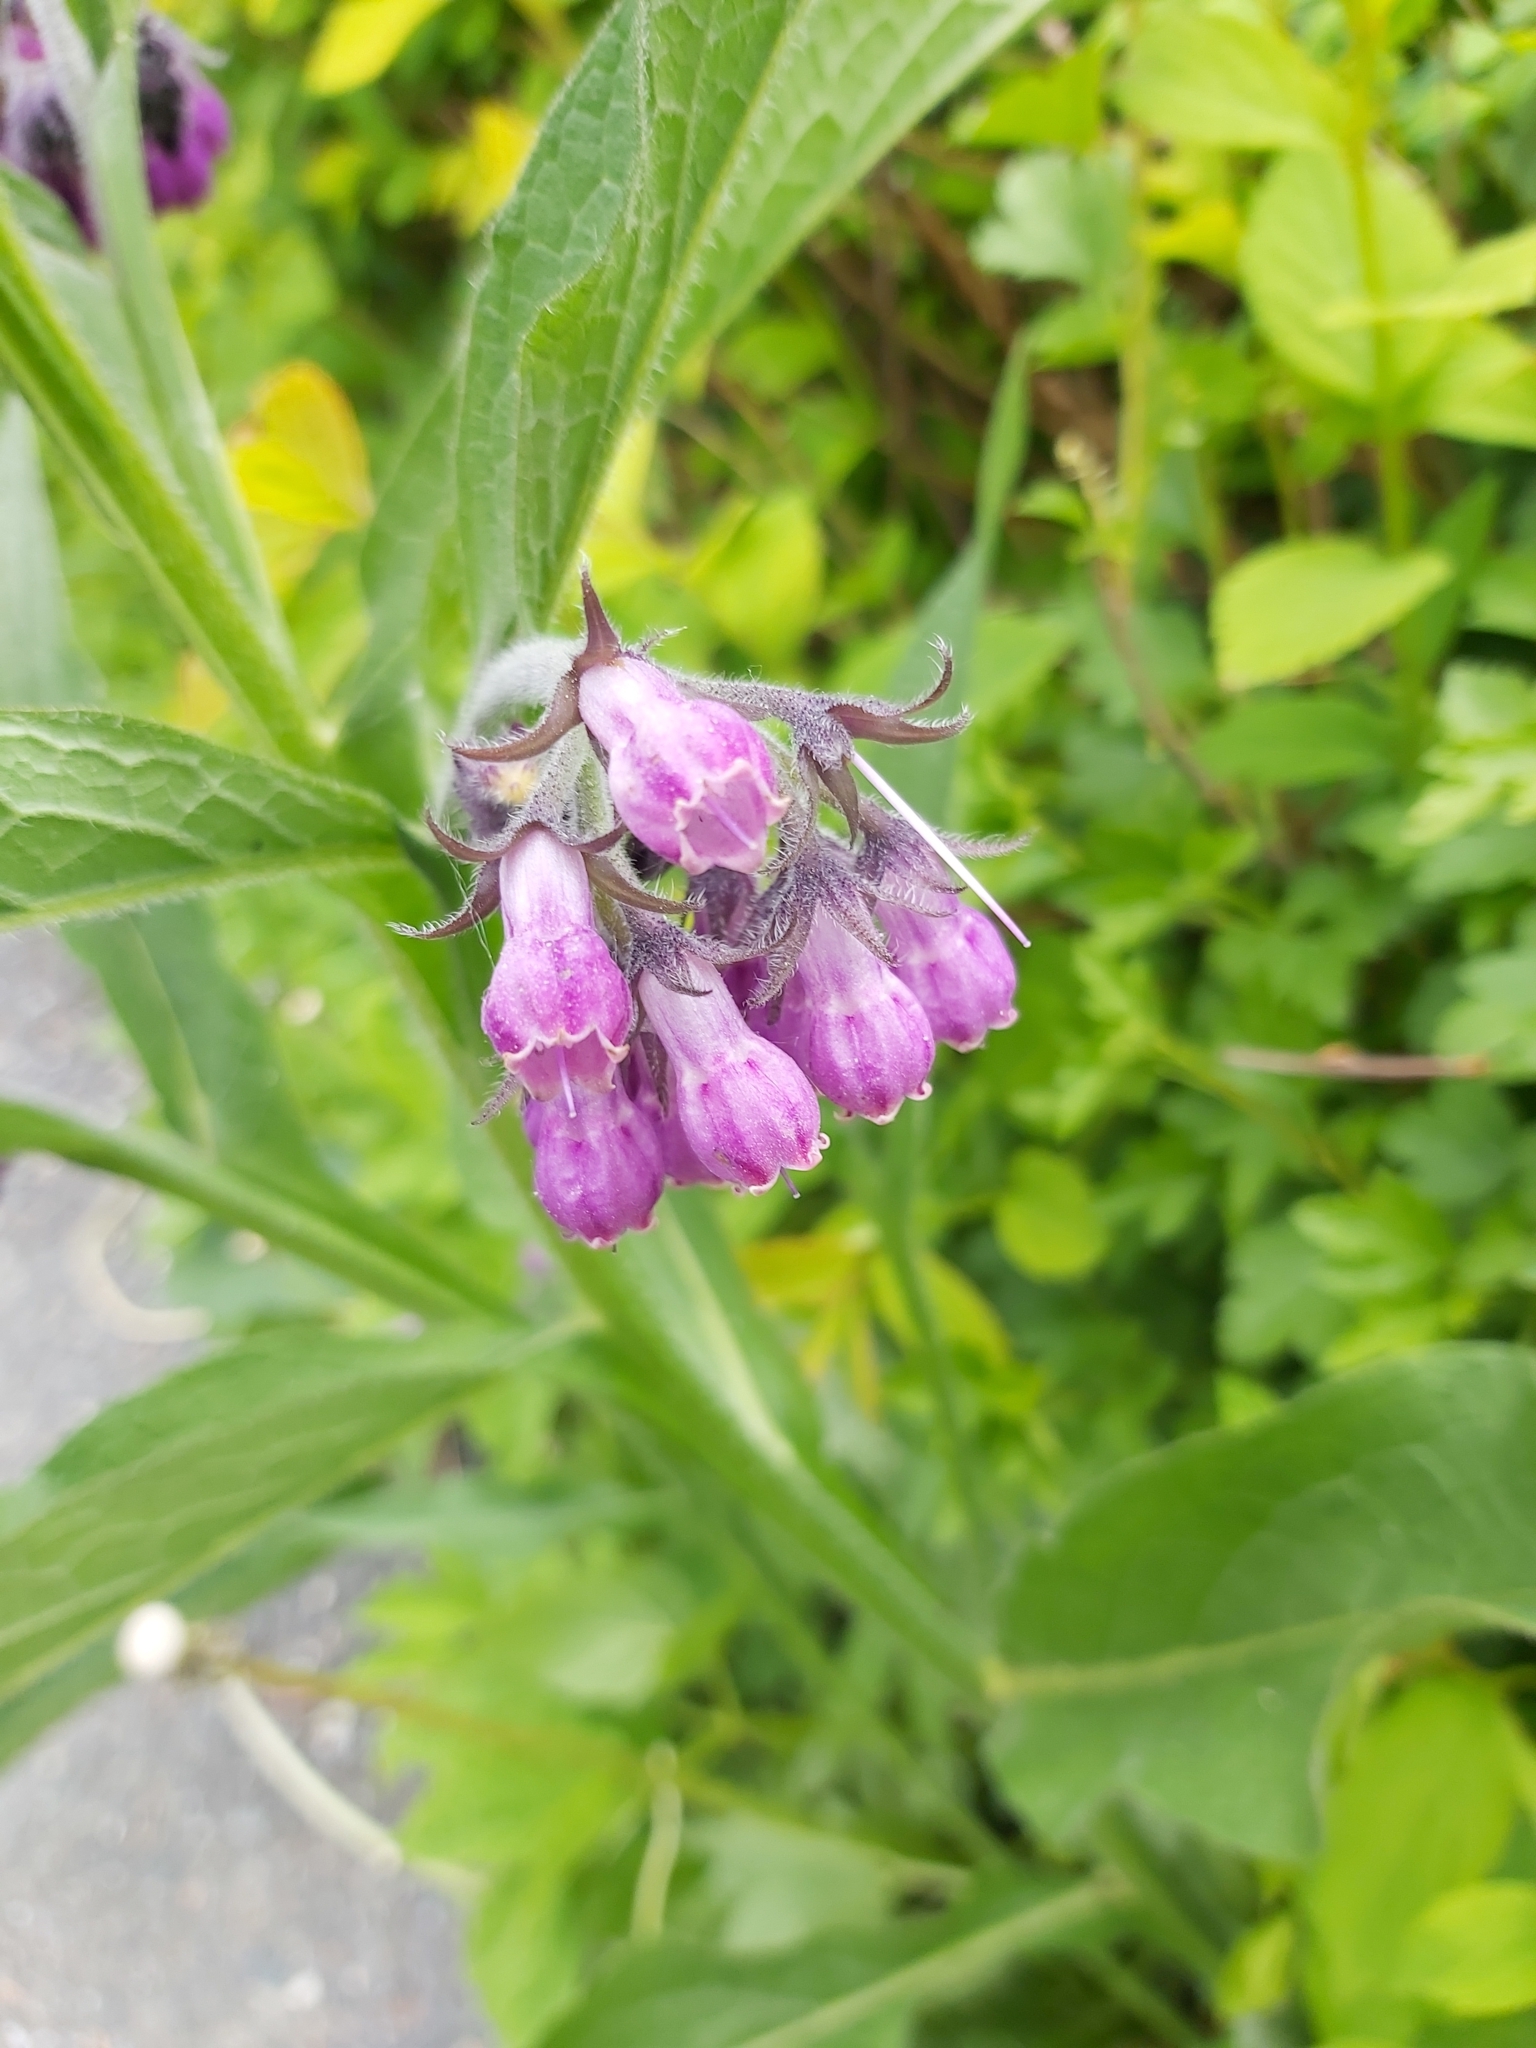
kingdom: Plantae
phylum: Tracheophyta
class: Magnoliopsida
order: Boraginales
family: Boraginaceae
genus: Symphytum
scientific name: Symphytum officinale
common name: Common comfrey
